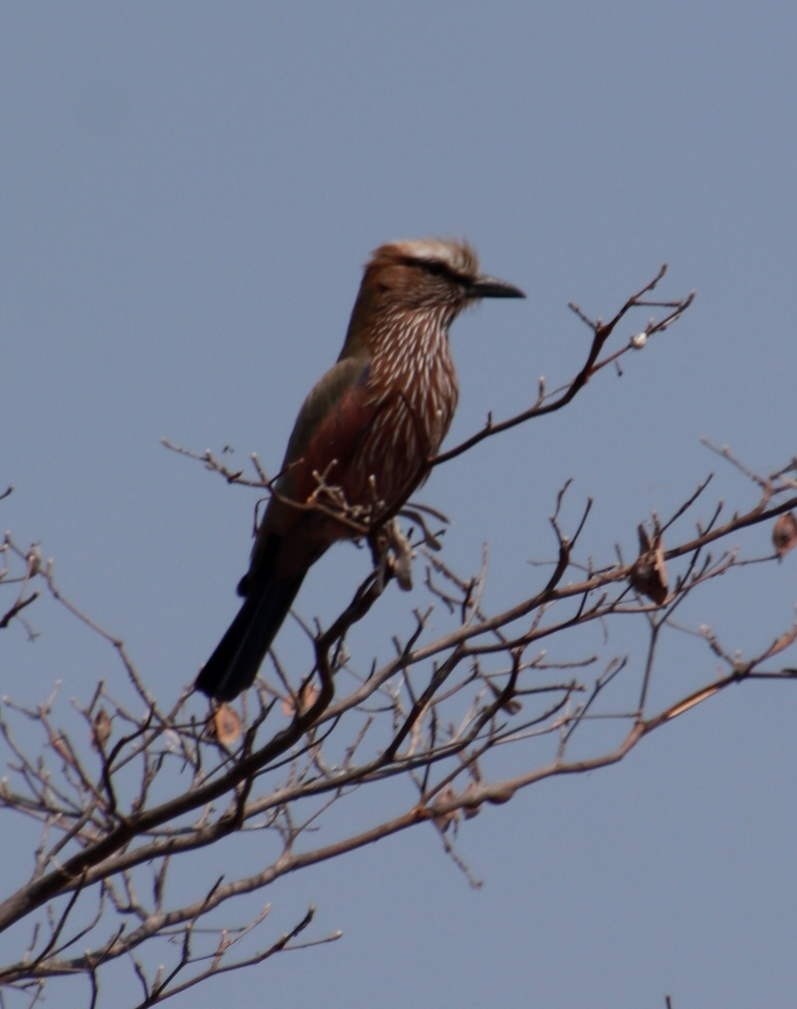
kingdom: Animalia
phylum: Chordata
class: Aves
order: Coraciiformes
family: Coraciidae
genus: Coracias
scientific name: Coracias naevius
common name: Purple roller
